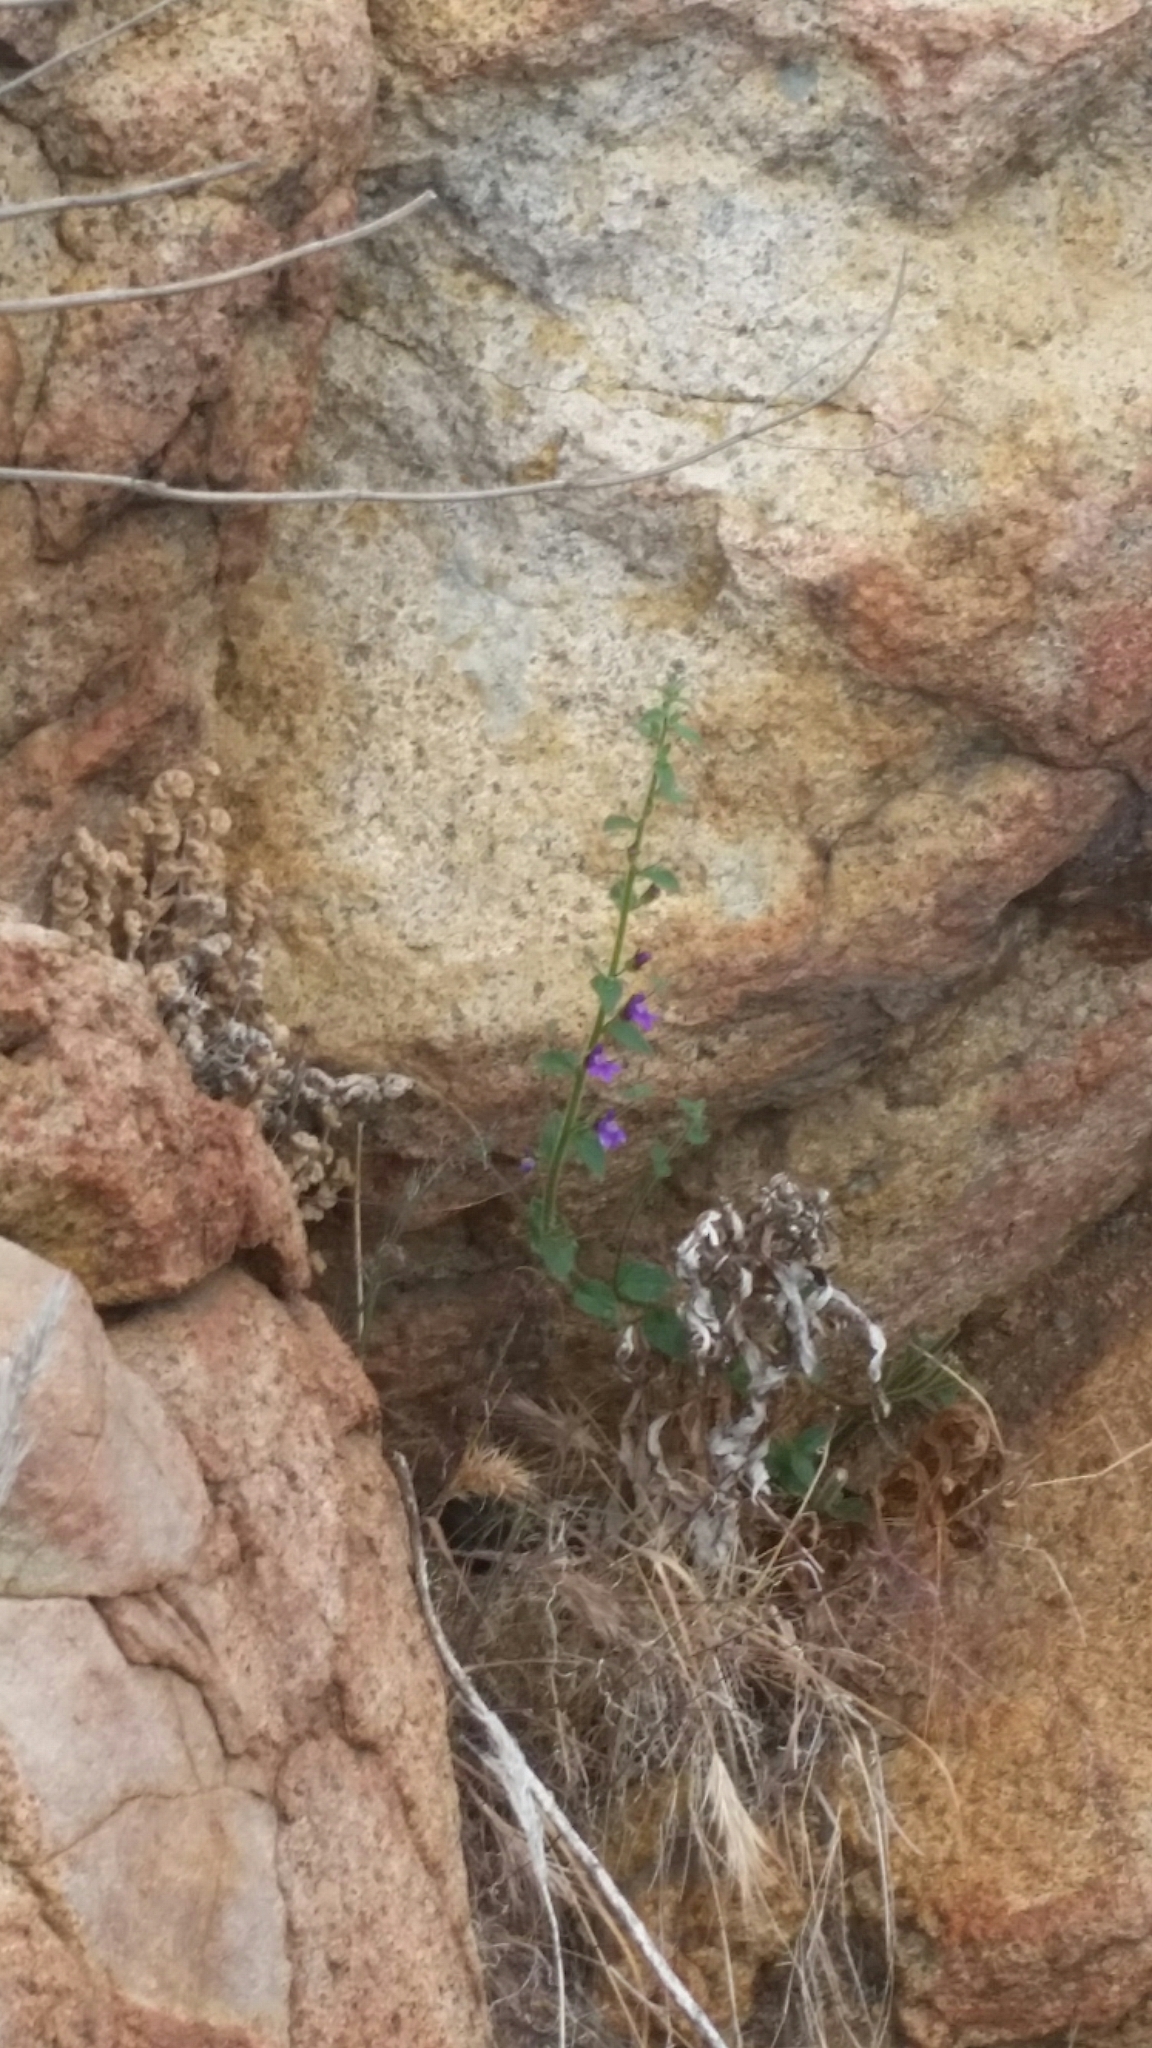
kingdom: Plantae
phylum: Tracheophyta
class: Magnoliopsida
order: Lamiales
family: Plantaginaceae
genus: Sairocarpus
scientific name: Sairocarpus nuttallianus
